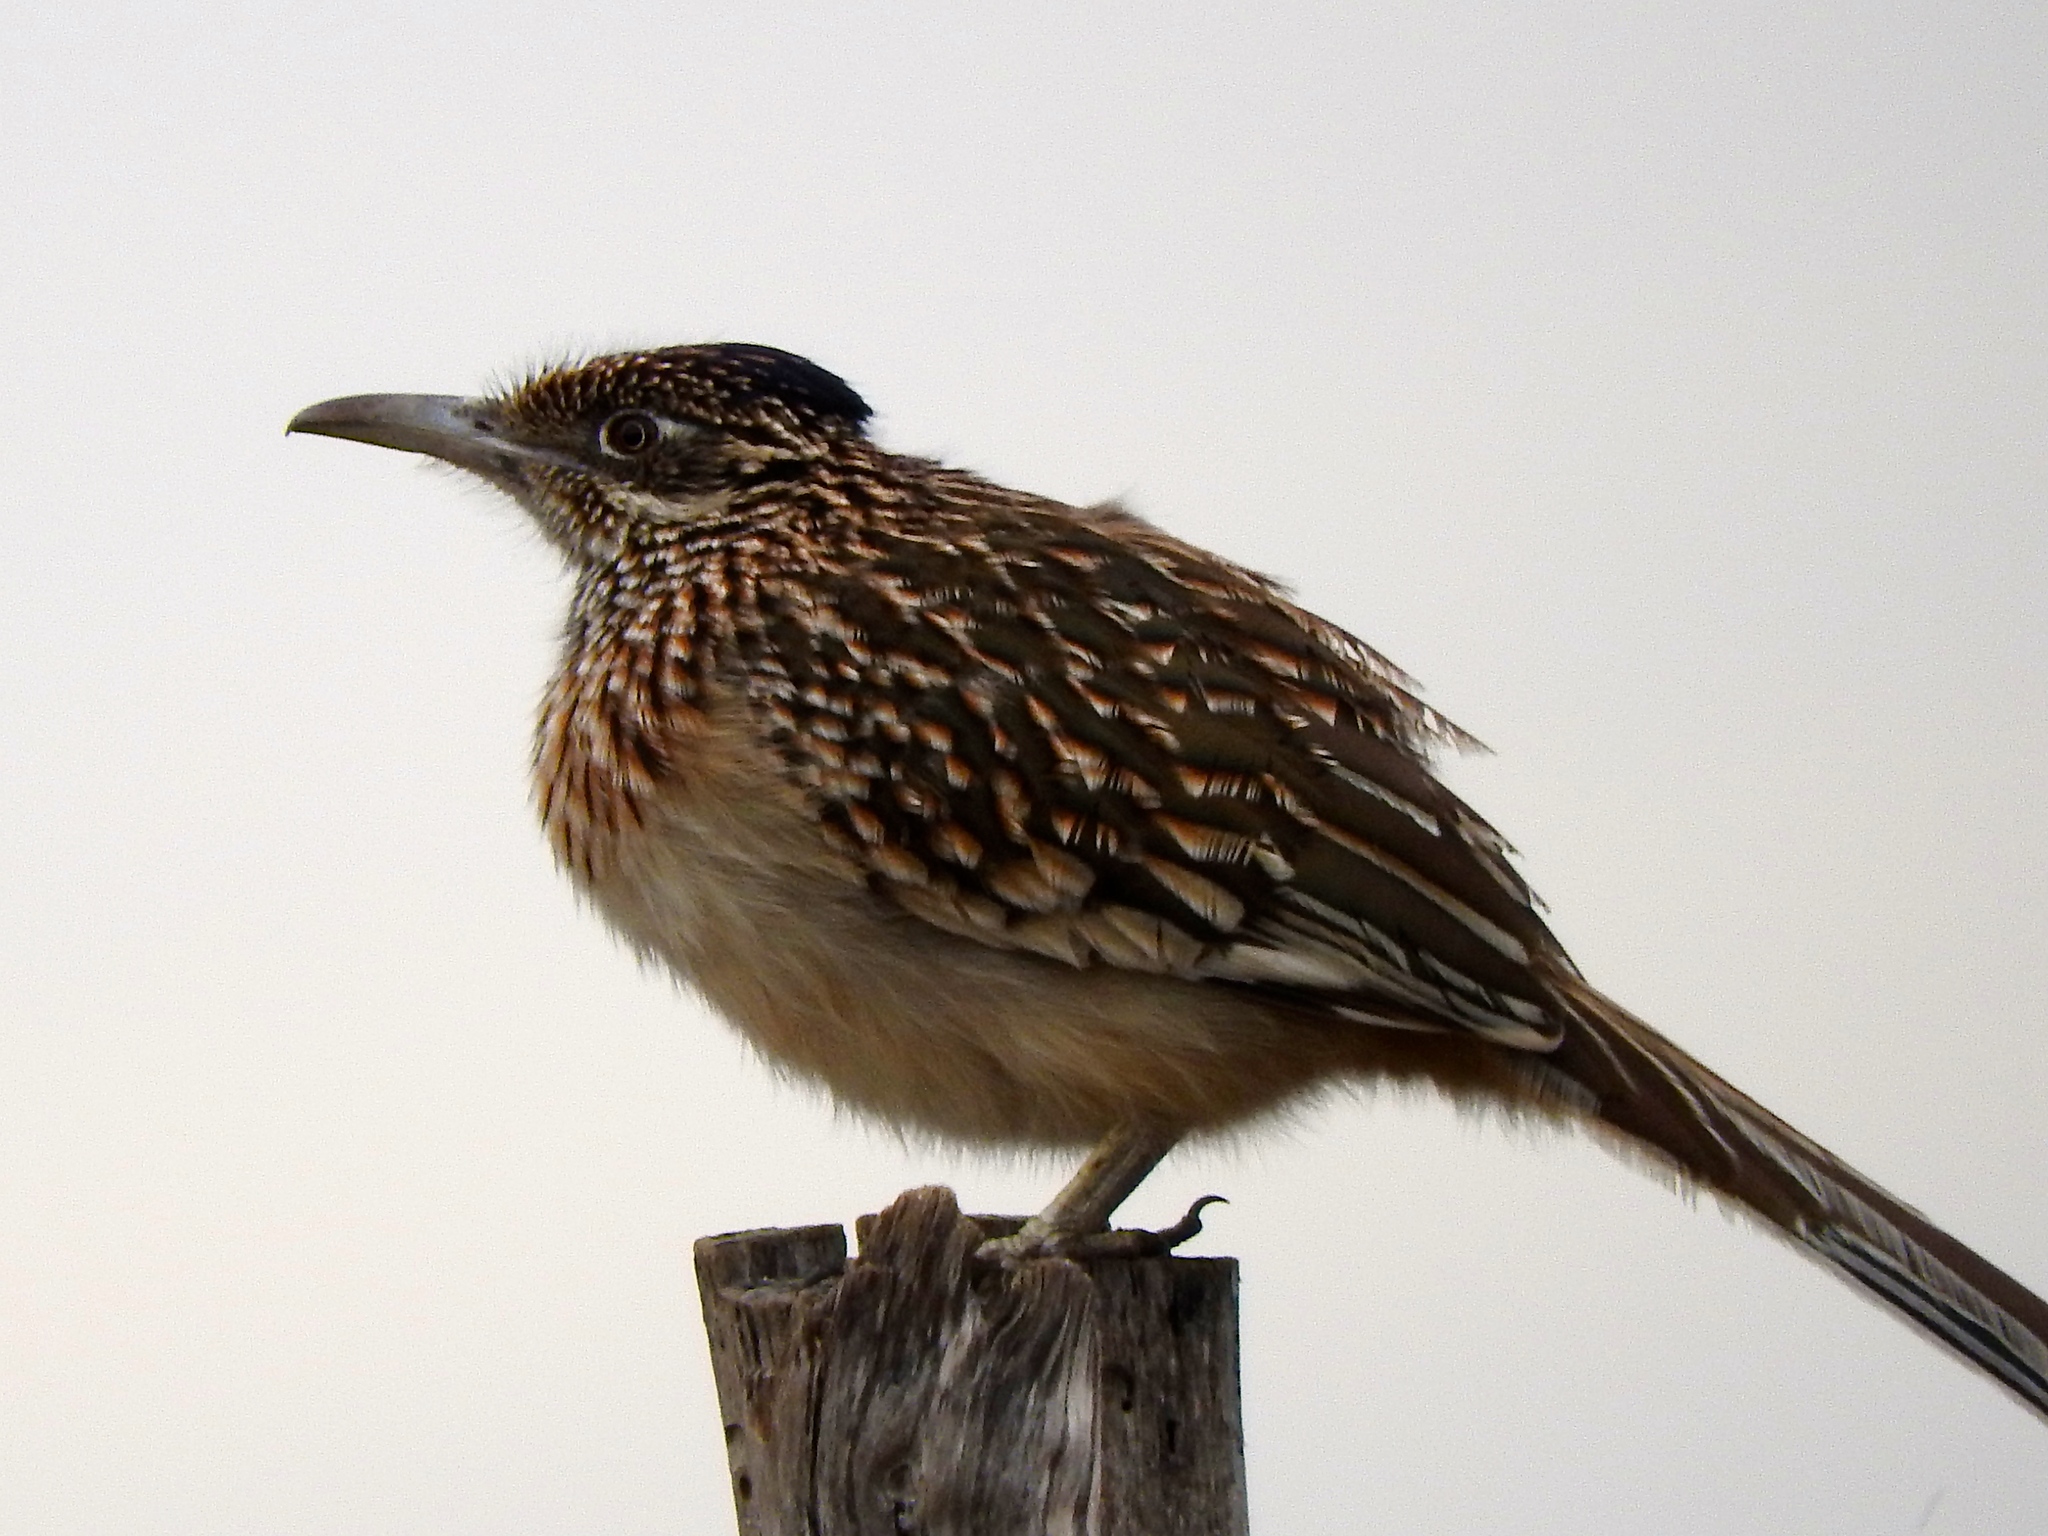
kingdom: Animalia
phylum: Chordata
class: Aves
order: Cuculiformes
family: Cuculidae
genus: Geococcyx
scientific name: Geococcyx californianus
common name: Greater roadrunner
